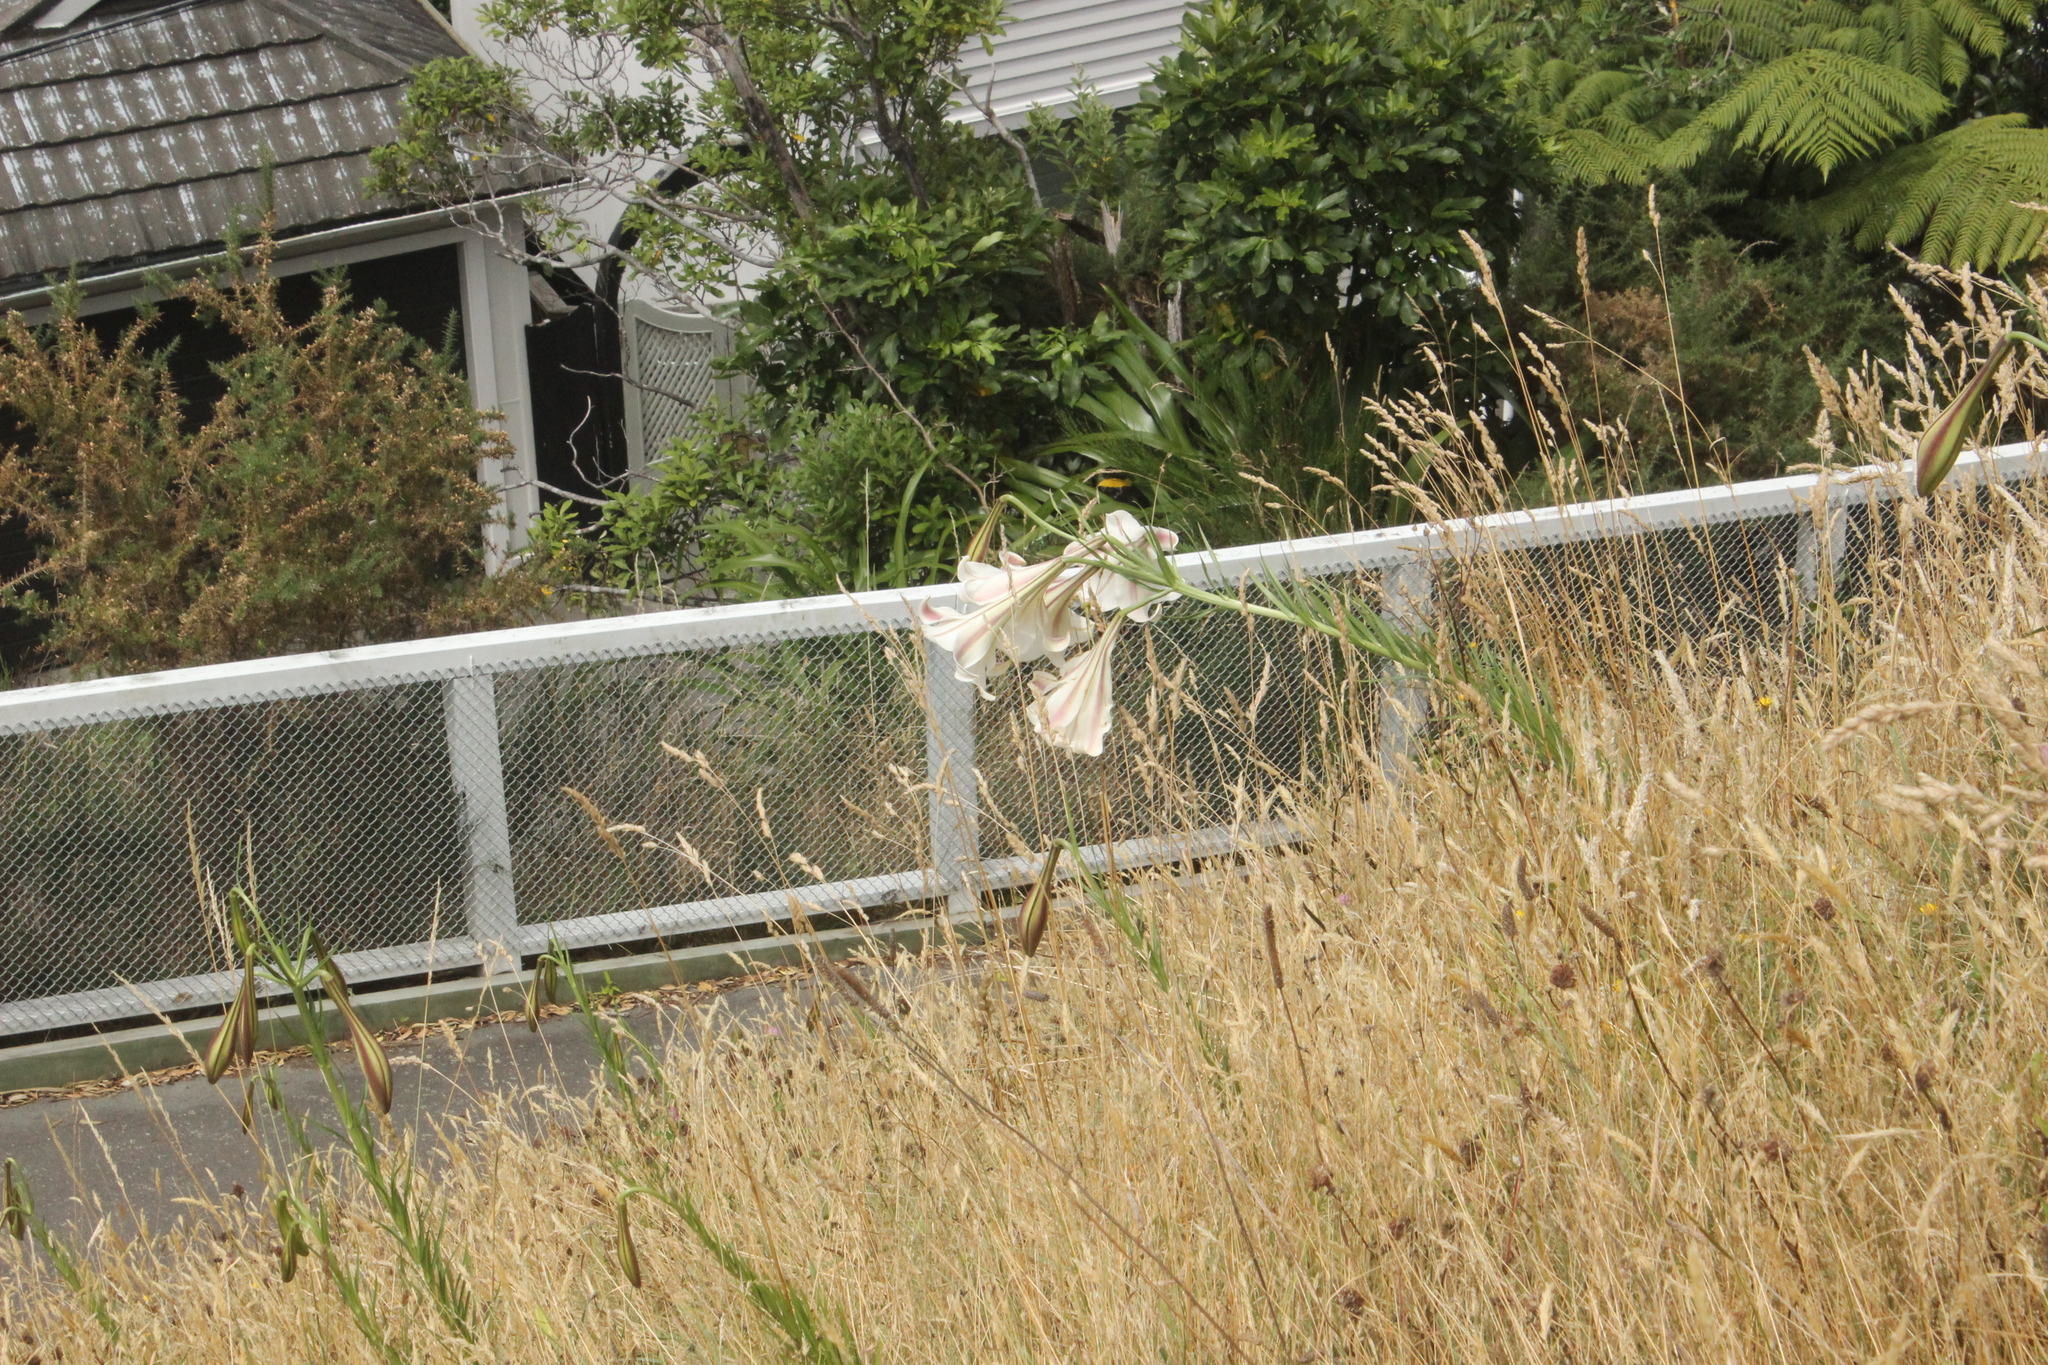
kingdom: Plantae
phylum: Tracheophyta
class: Liliopsida
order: Liliales
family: Liliaceae
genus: Lilium
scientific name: Lilium formosanum
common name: Formosa lily
